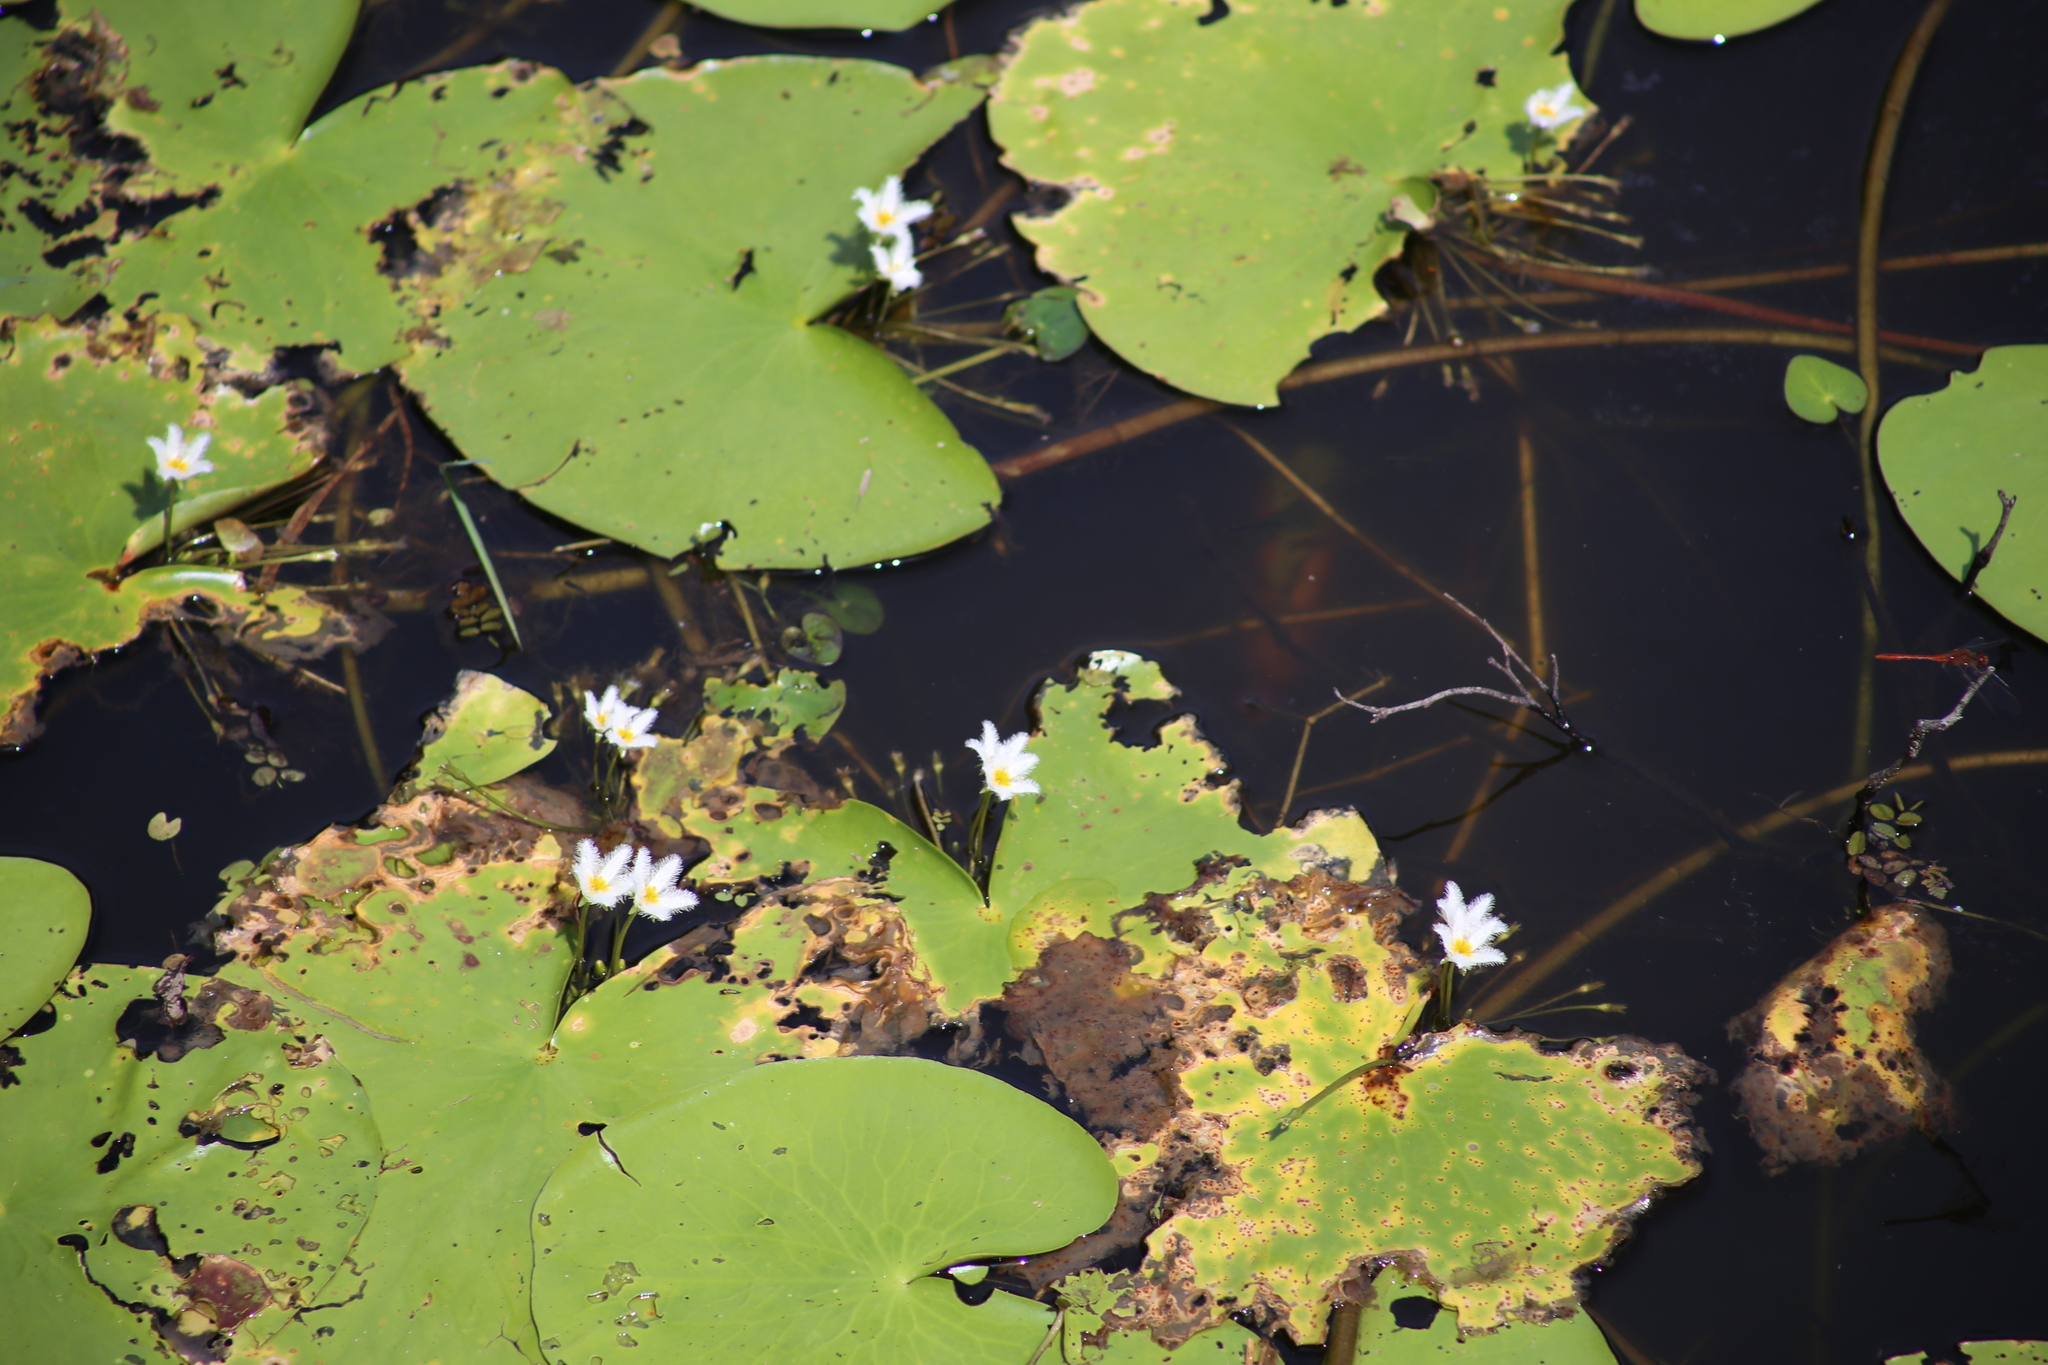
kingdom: Plantae
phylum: Tracheophyta
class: Magnoliopsida
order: Asterales
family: Menyanthaceae
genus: Nymphoides
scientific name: Nymphoides indica
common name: Water-snowflake
